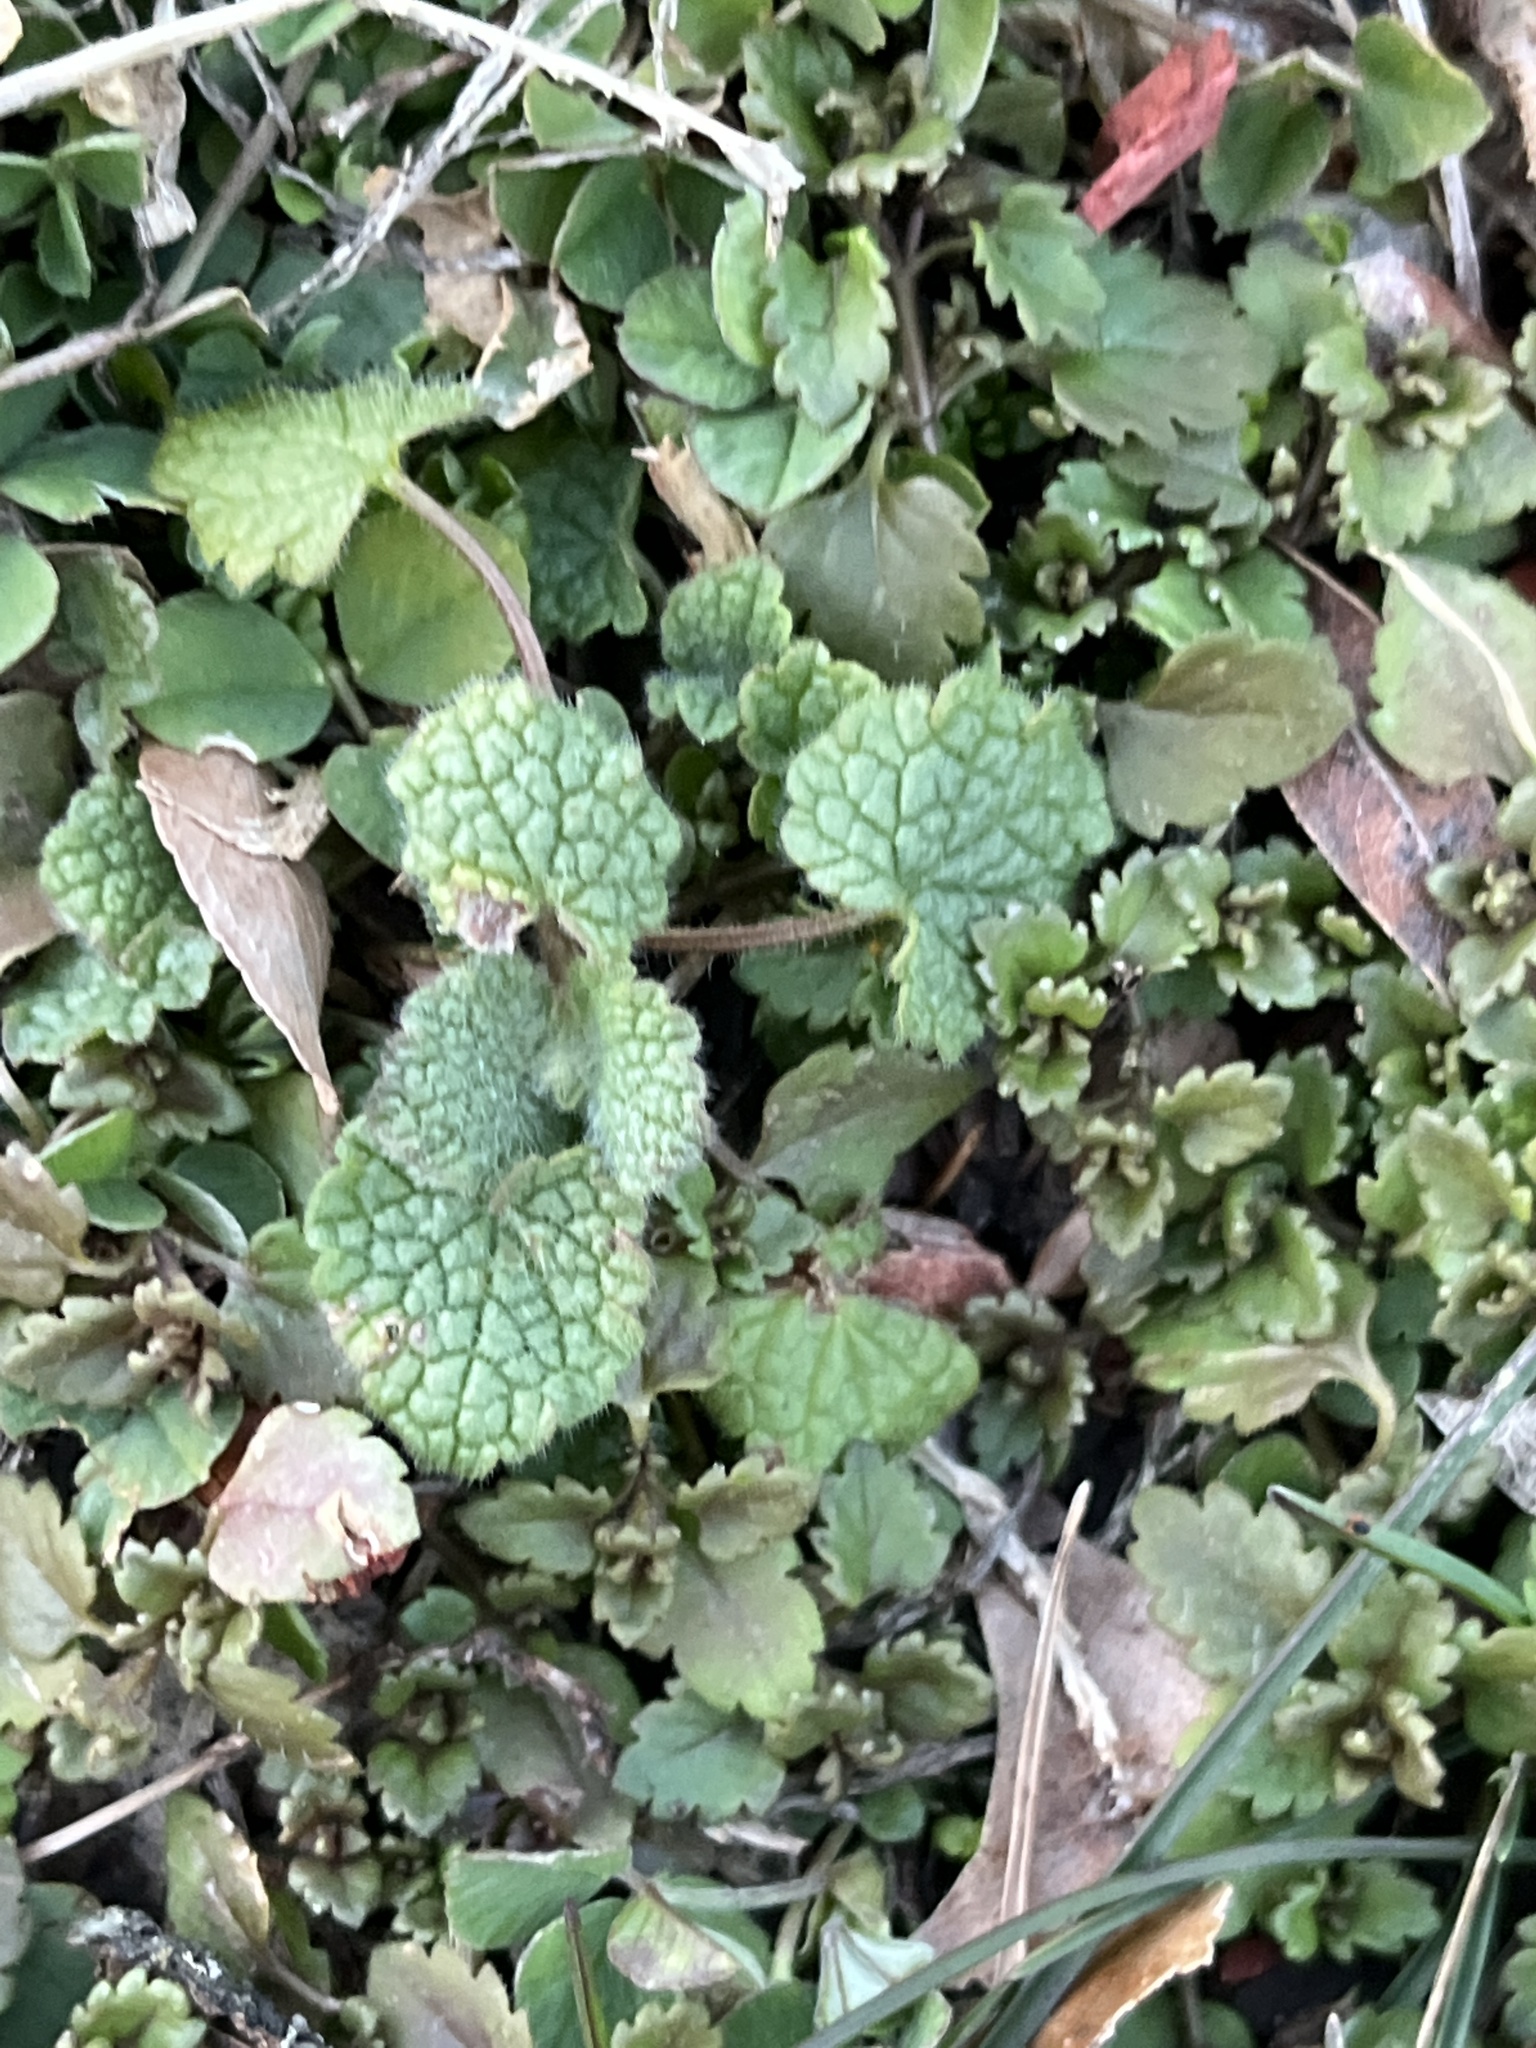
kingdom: Plantae
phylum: Tracheophyta
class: Magnoliopsida
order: Lamiales
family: Lamiaceae
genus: Lamium
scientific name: Lamium purpureum
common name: Red dead-nettle
